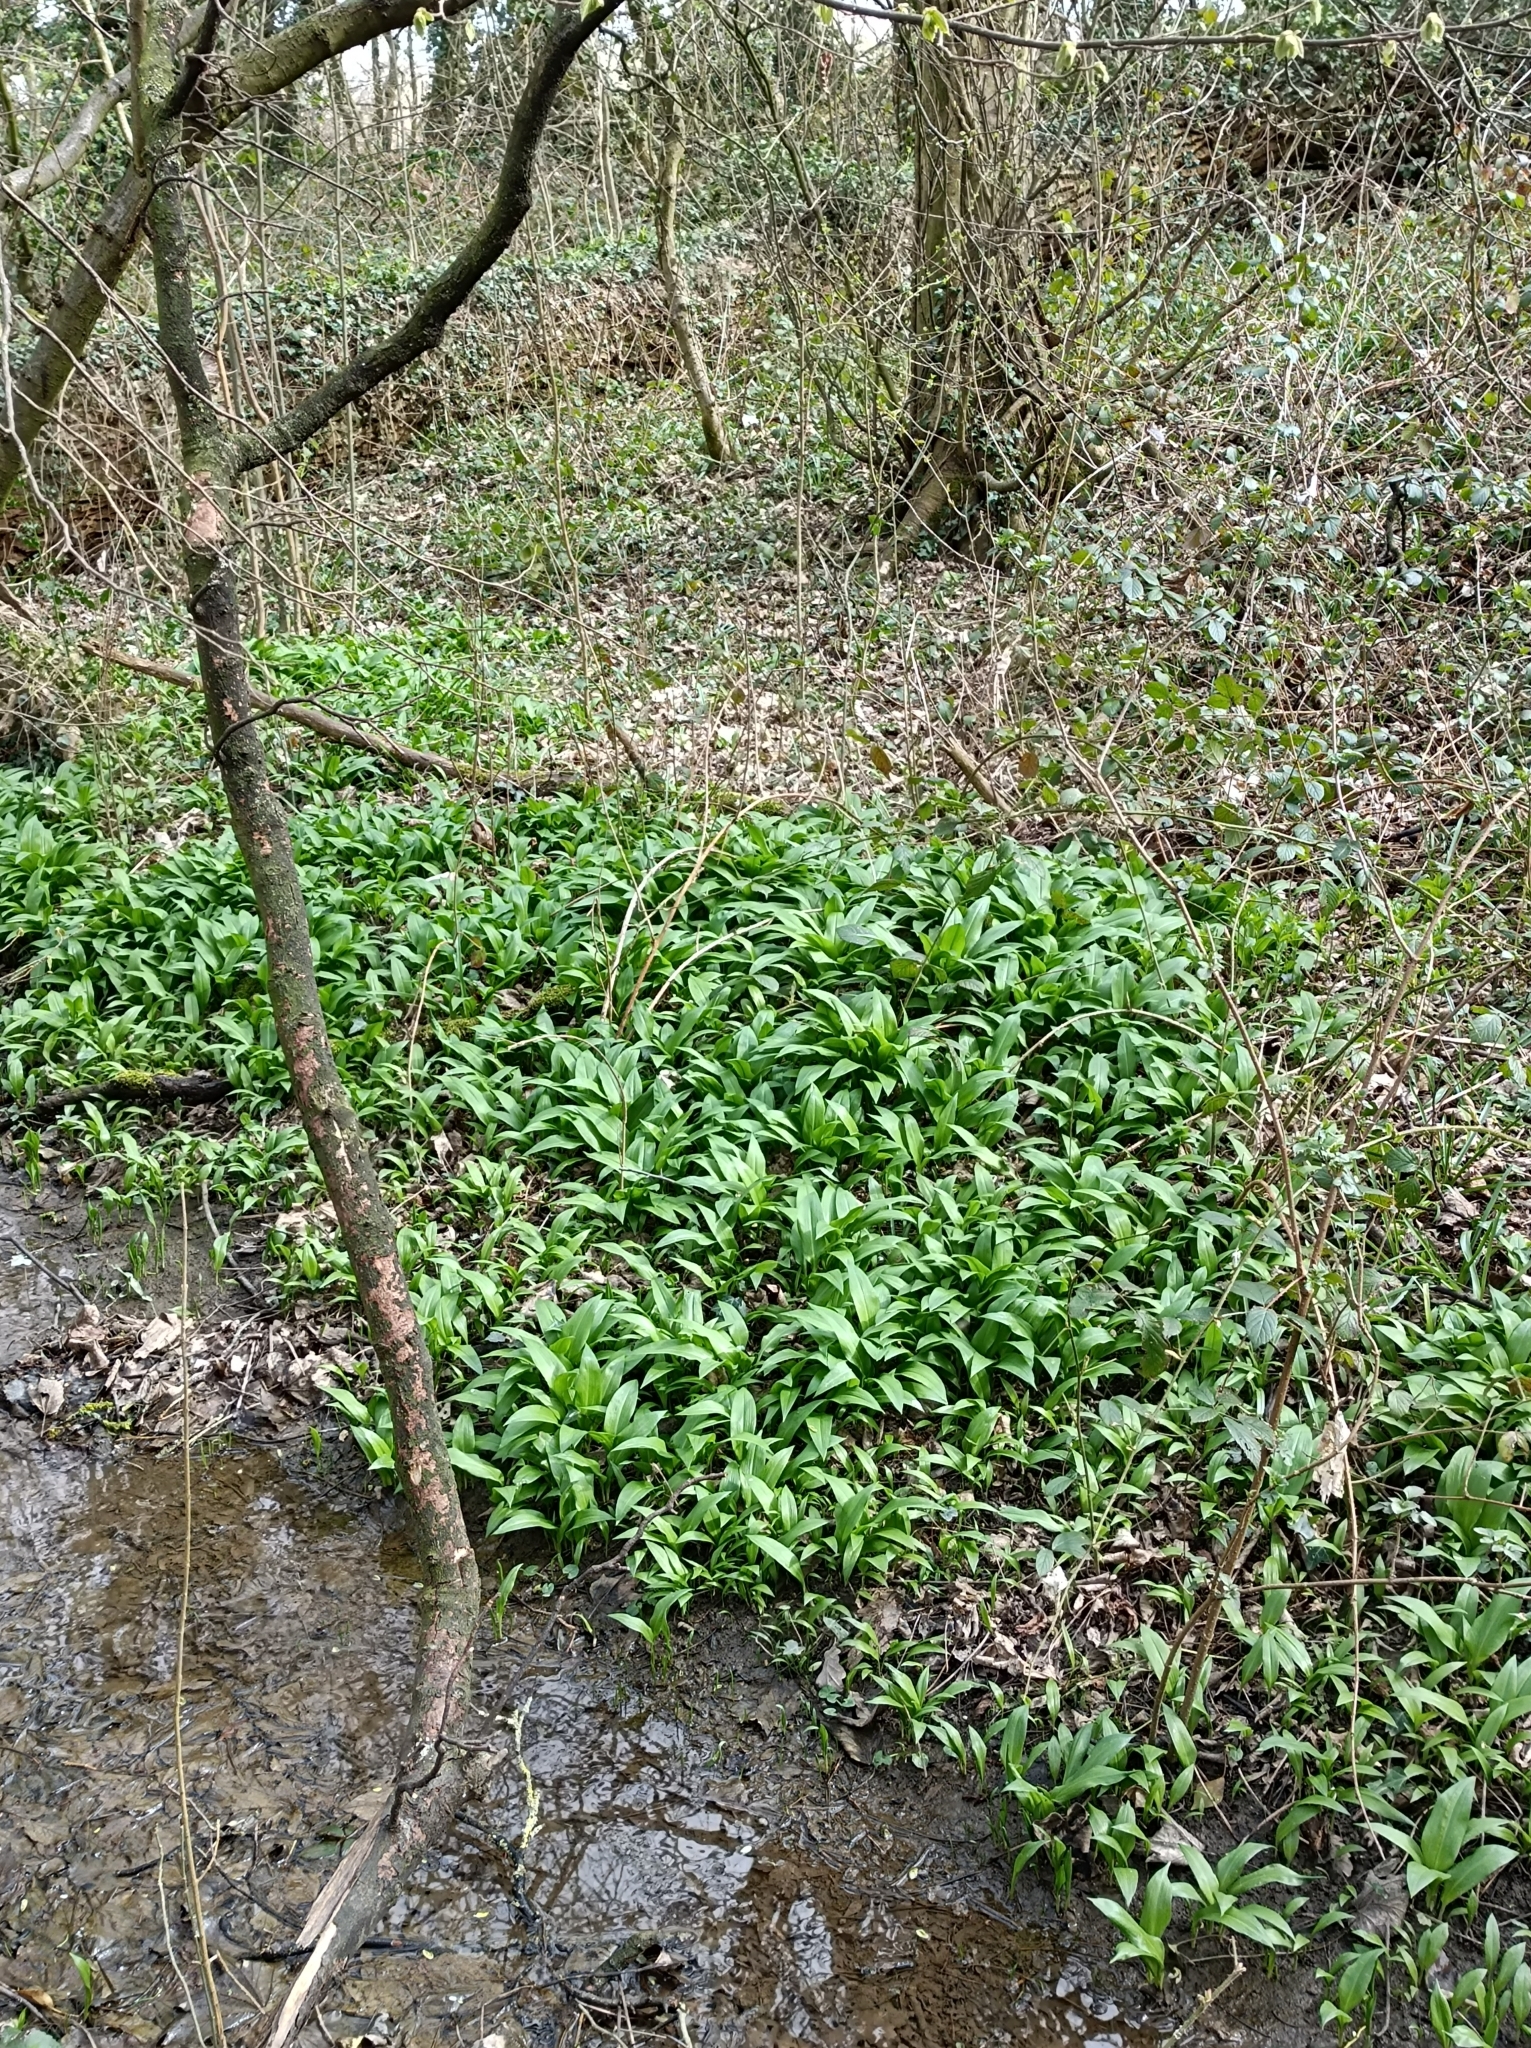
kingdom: Plantae
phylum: Tracheophyta
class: Liliopsida
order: Asparagales
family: Amaryllidaceae
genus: Allium
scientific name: Allium ursinum
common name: Ramsons
